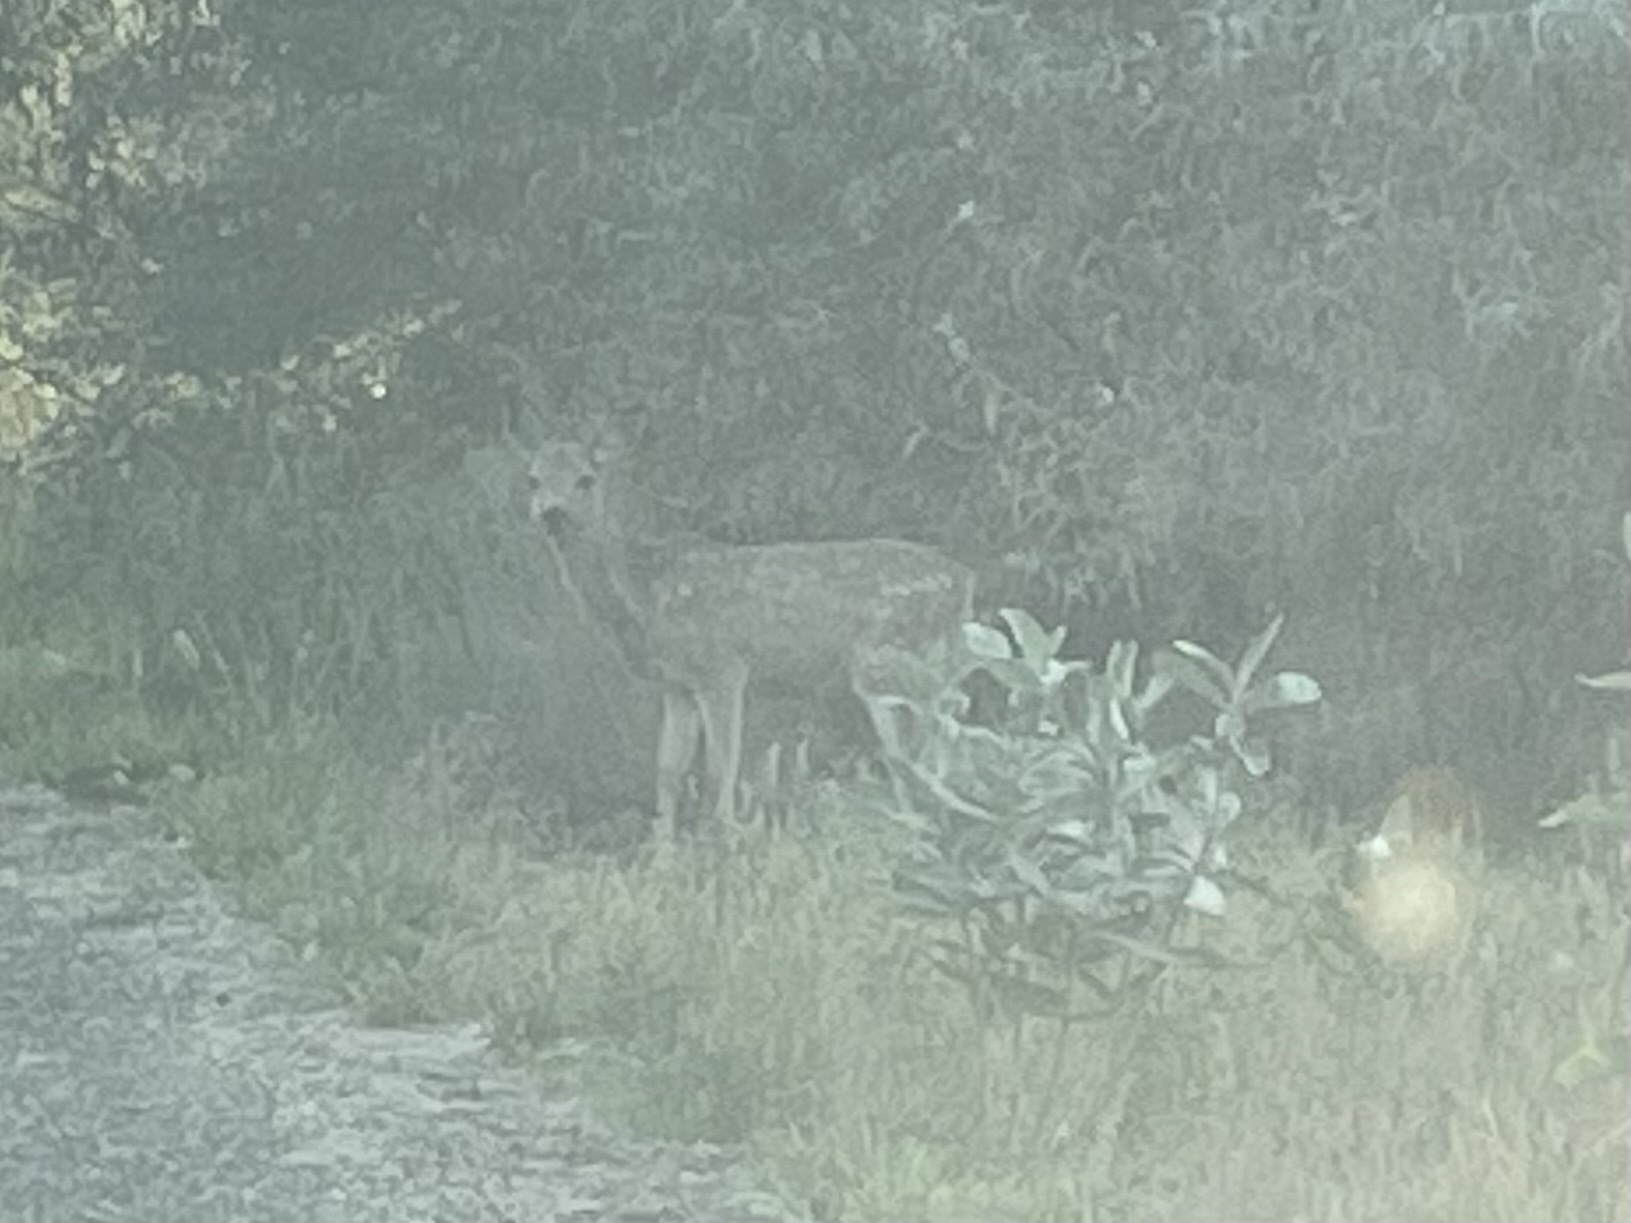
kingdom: Animalia
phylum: Chordata
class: Mammalia
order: Artiodactyla
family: Cervidae
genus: Odocoileus
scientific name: Odocoileus hemionus
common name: Mule deer
